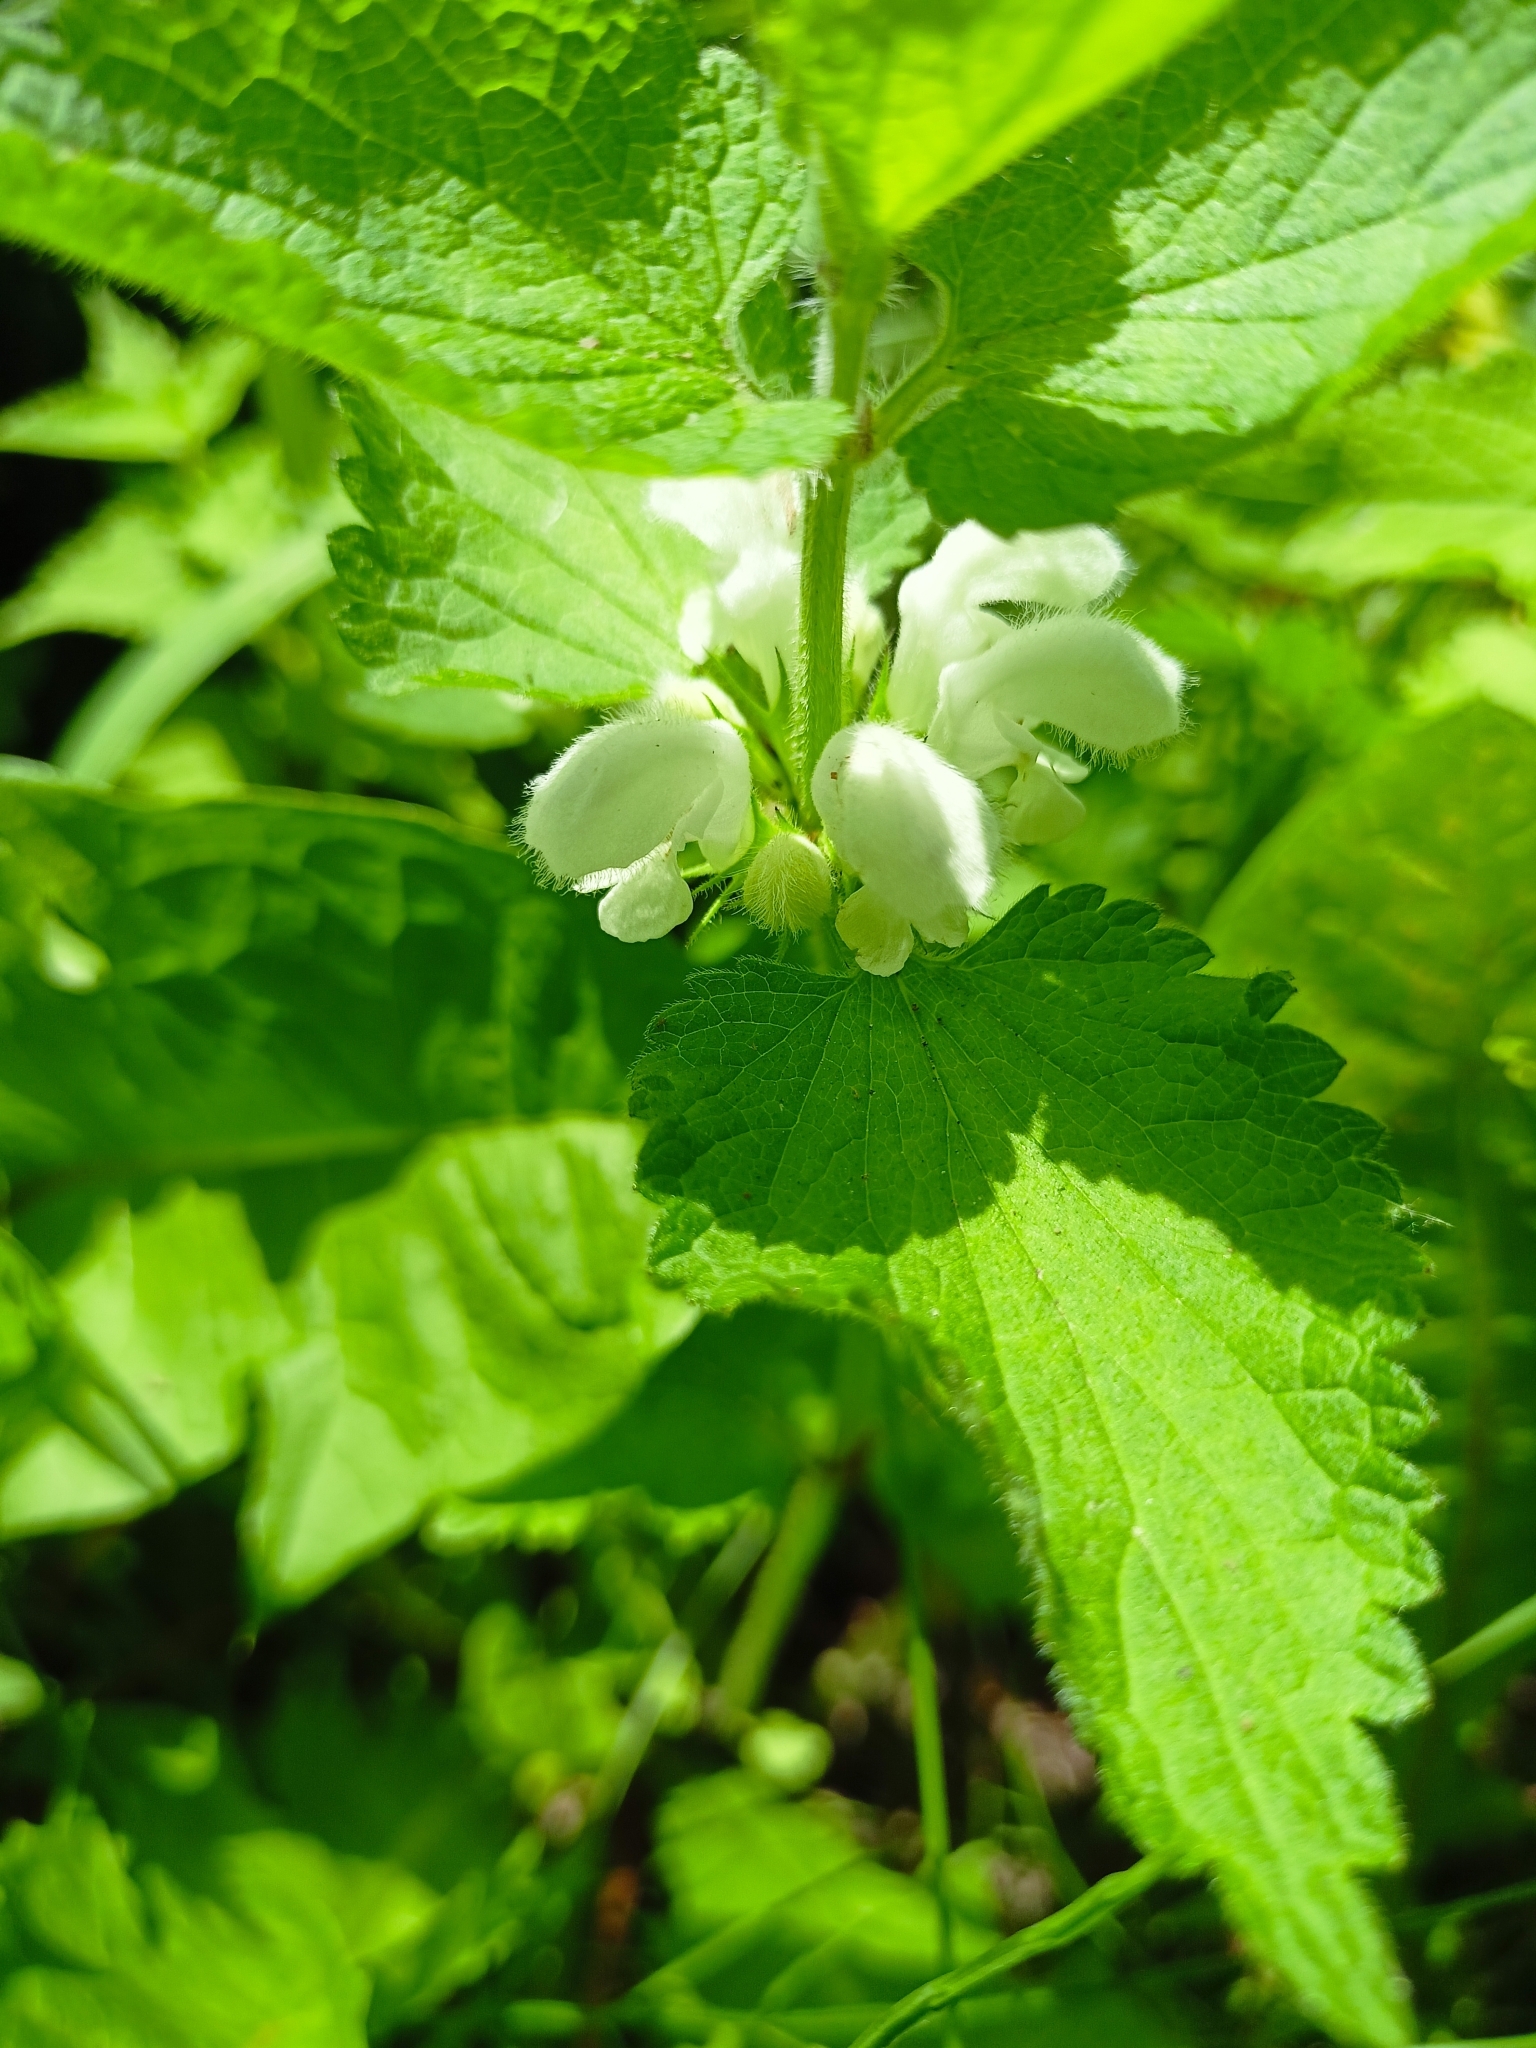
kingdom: Plantae
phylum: Tracheophyta
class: Magnoliopsida
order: Lamiales
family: Lamiaceae
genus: Lamium
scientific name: Lamium album
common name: White dead-nettle
